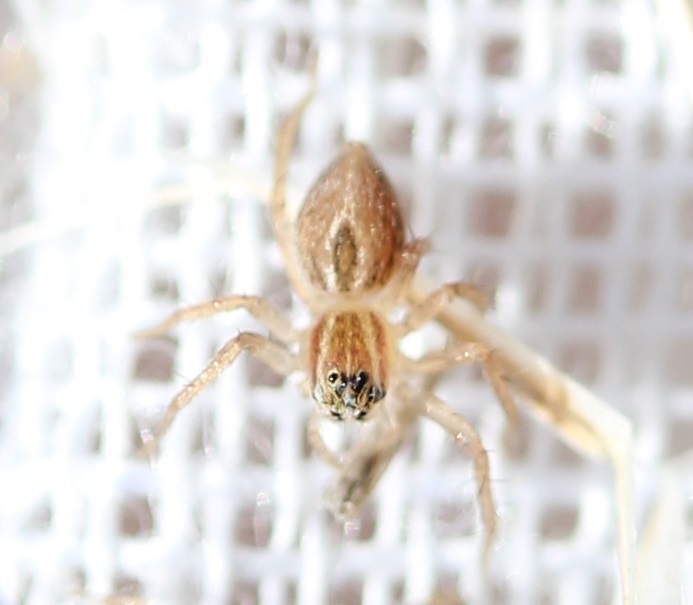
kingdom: Animalia
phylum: Arthropoda
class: Arachnida
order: Araneae
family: Oxyopidae
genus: Oxyopes
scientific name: Oxyopes salticus
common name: Lynx spiders
